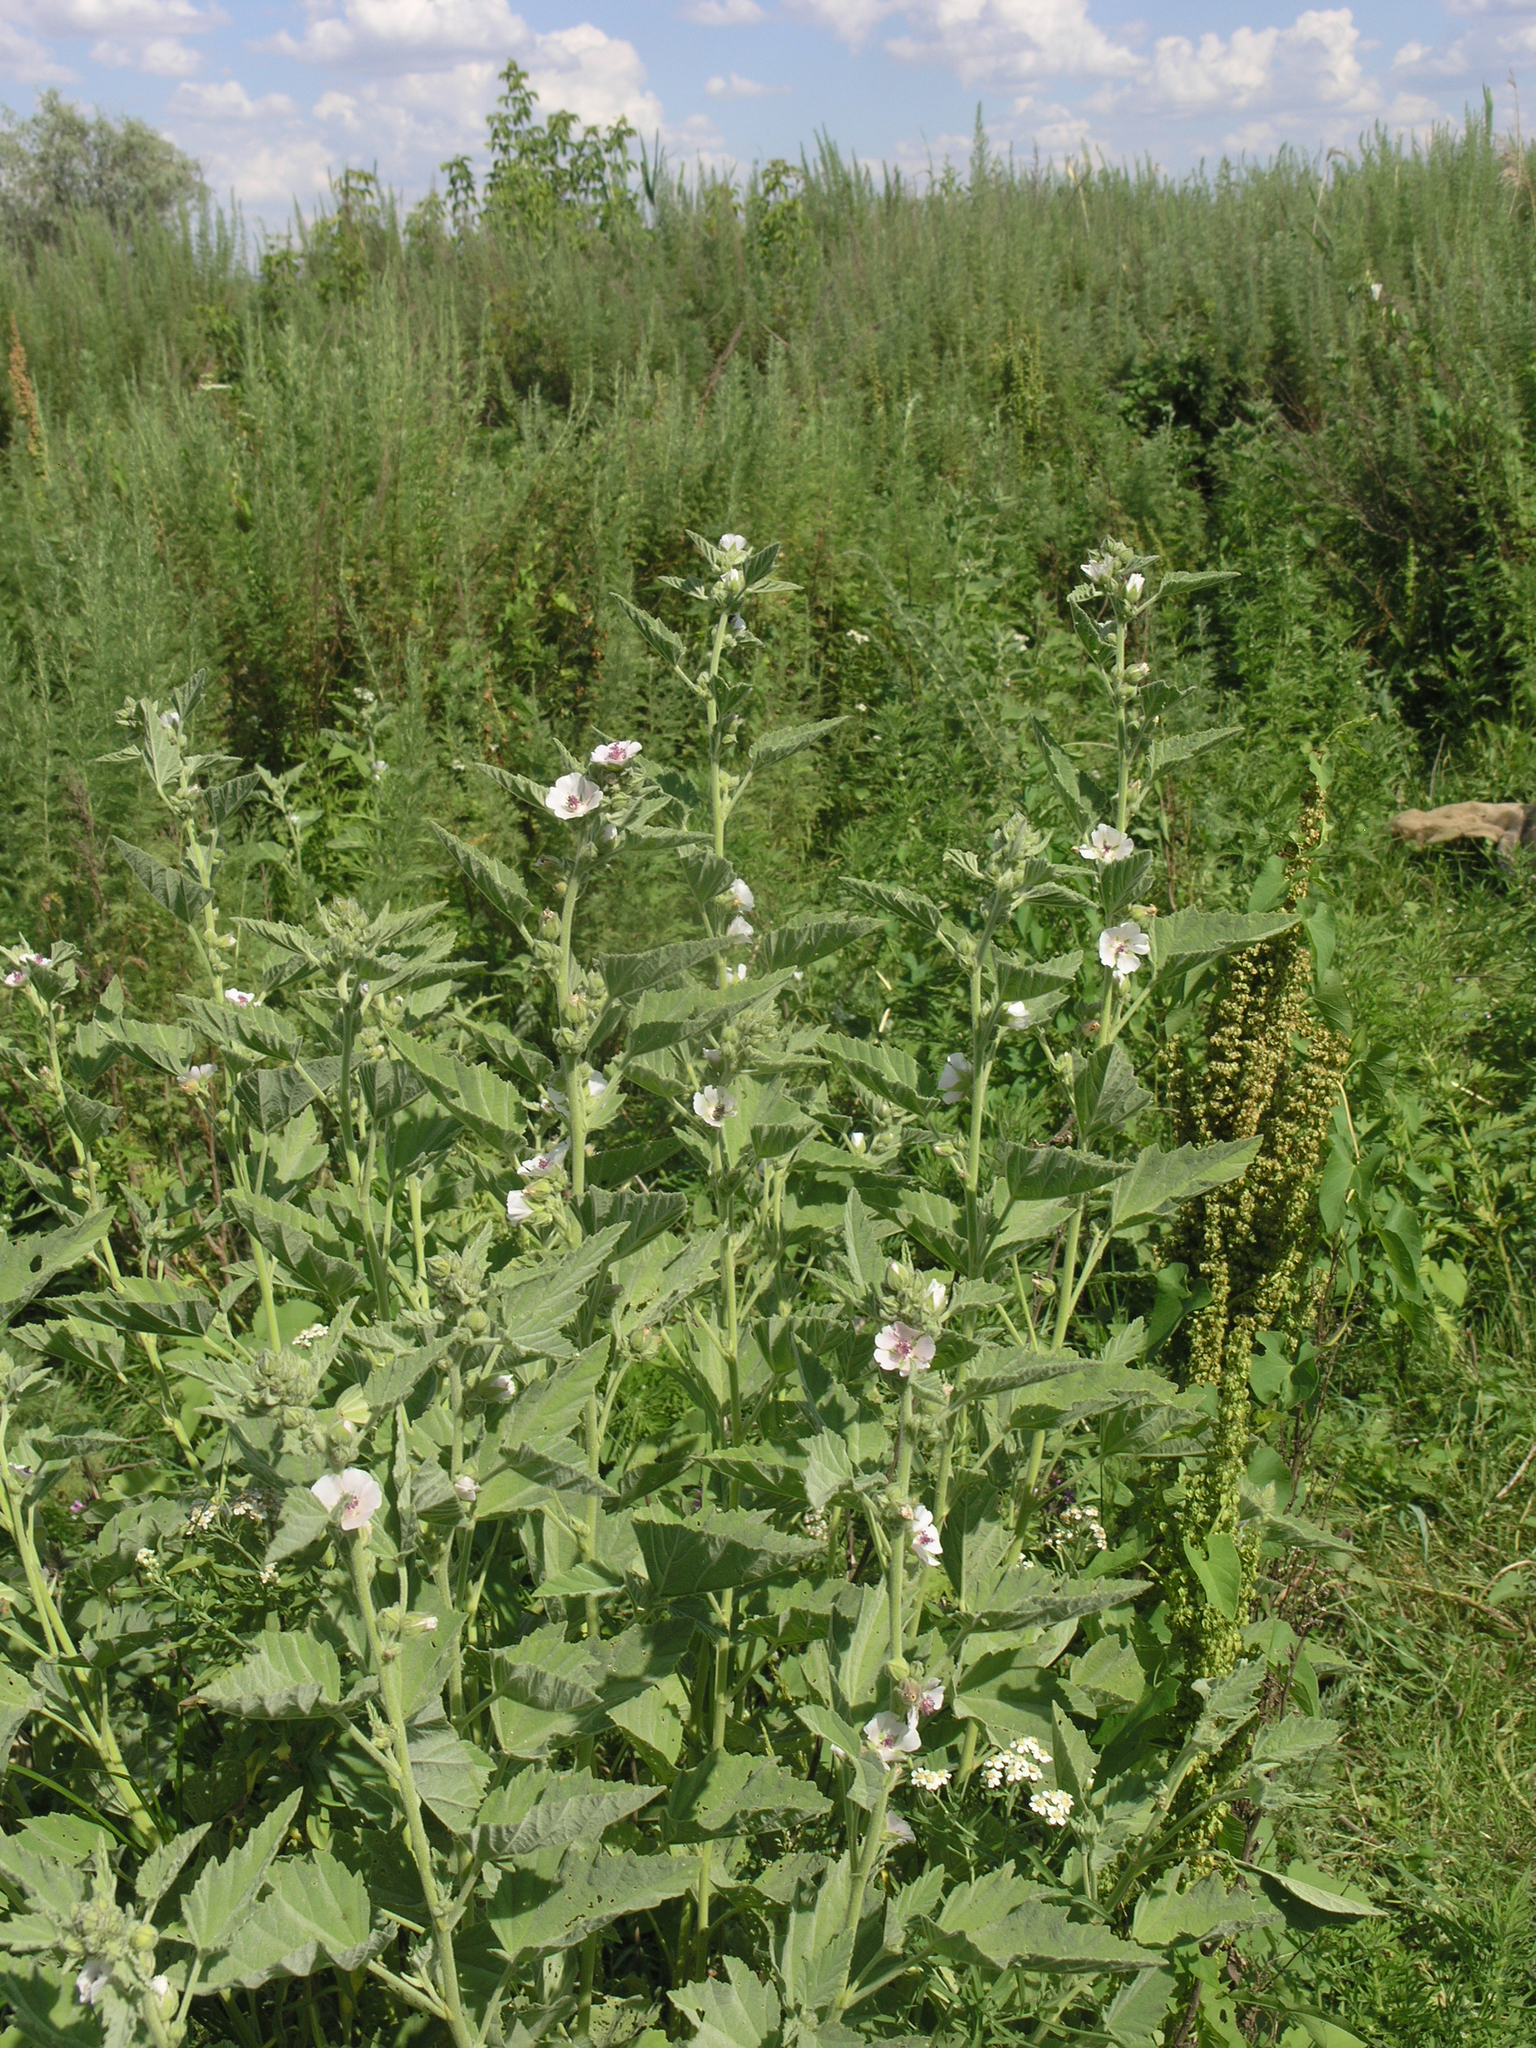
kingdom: Plantae
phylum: Tracheophyta
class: Magnoliopsida
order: Malvales
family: Malvaceae
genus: Althaea
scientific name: Althaea officinalis
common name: Marsh-mallow
